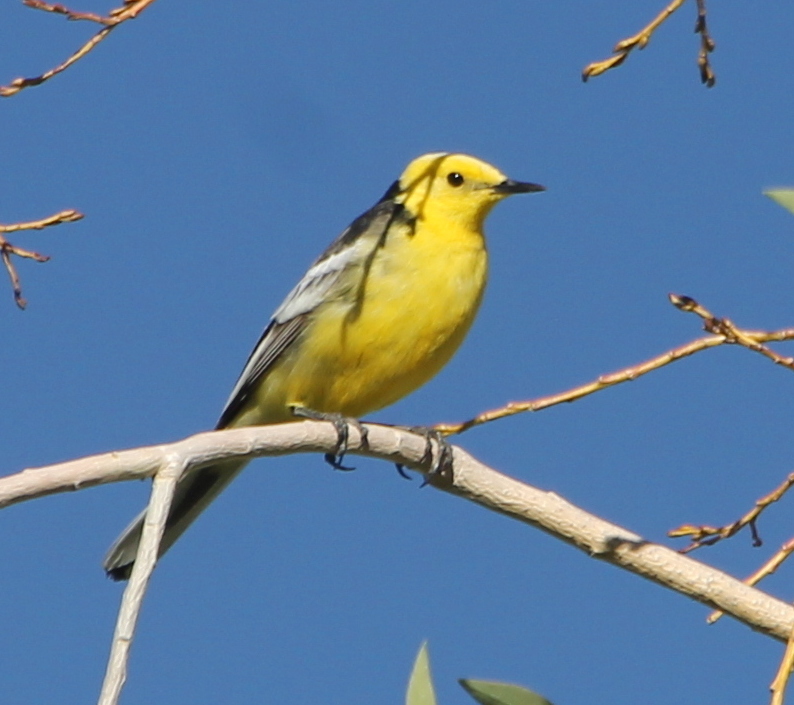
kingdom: Animalia
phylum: Chordata
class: Aves
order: Passeriformes
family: Motacillidae
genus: Motacilla
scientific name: Motacilla citreola
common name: Citrine wagtail
